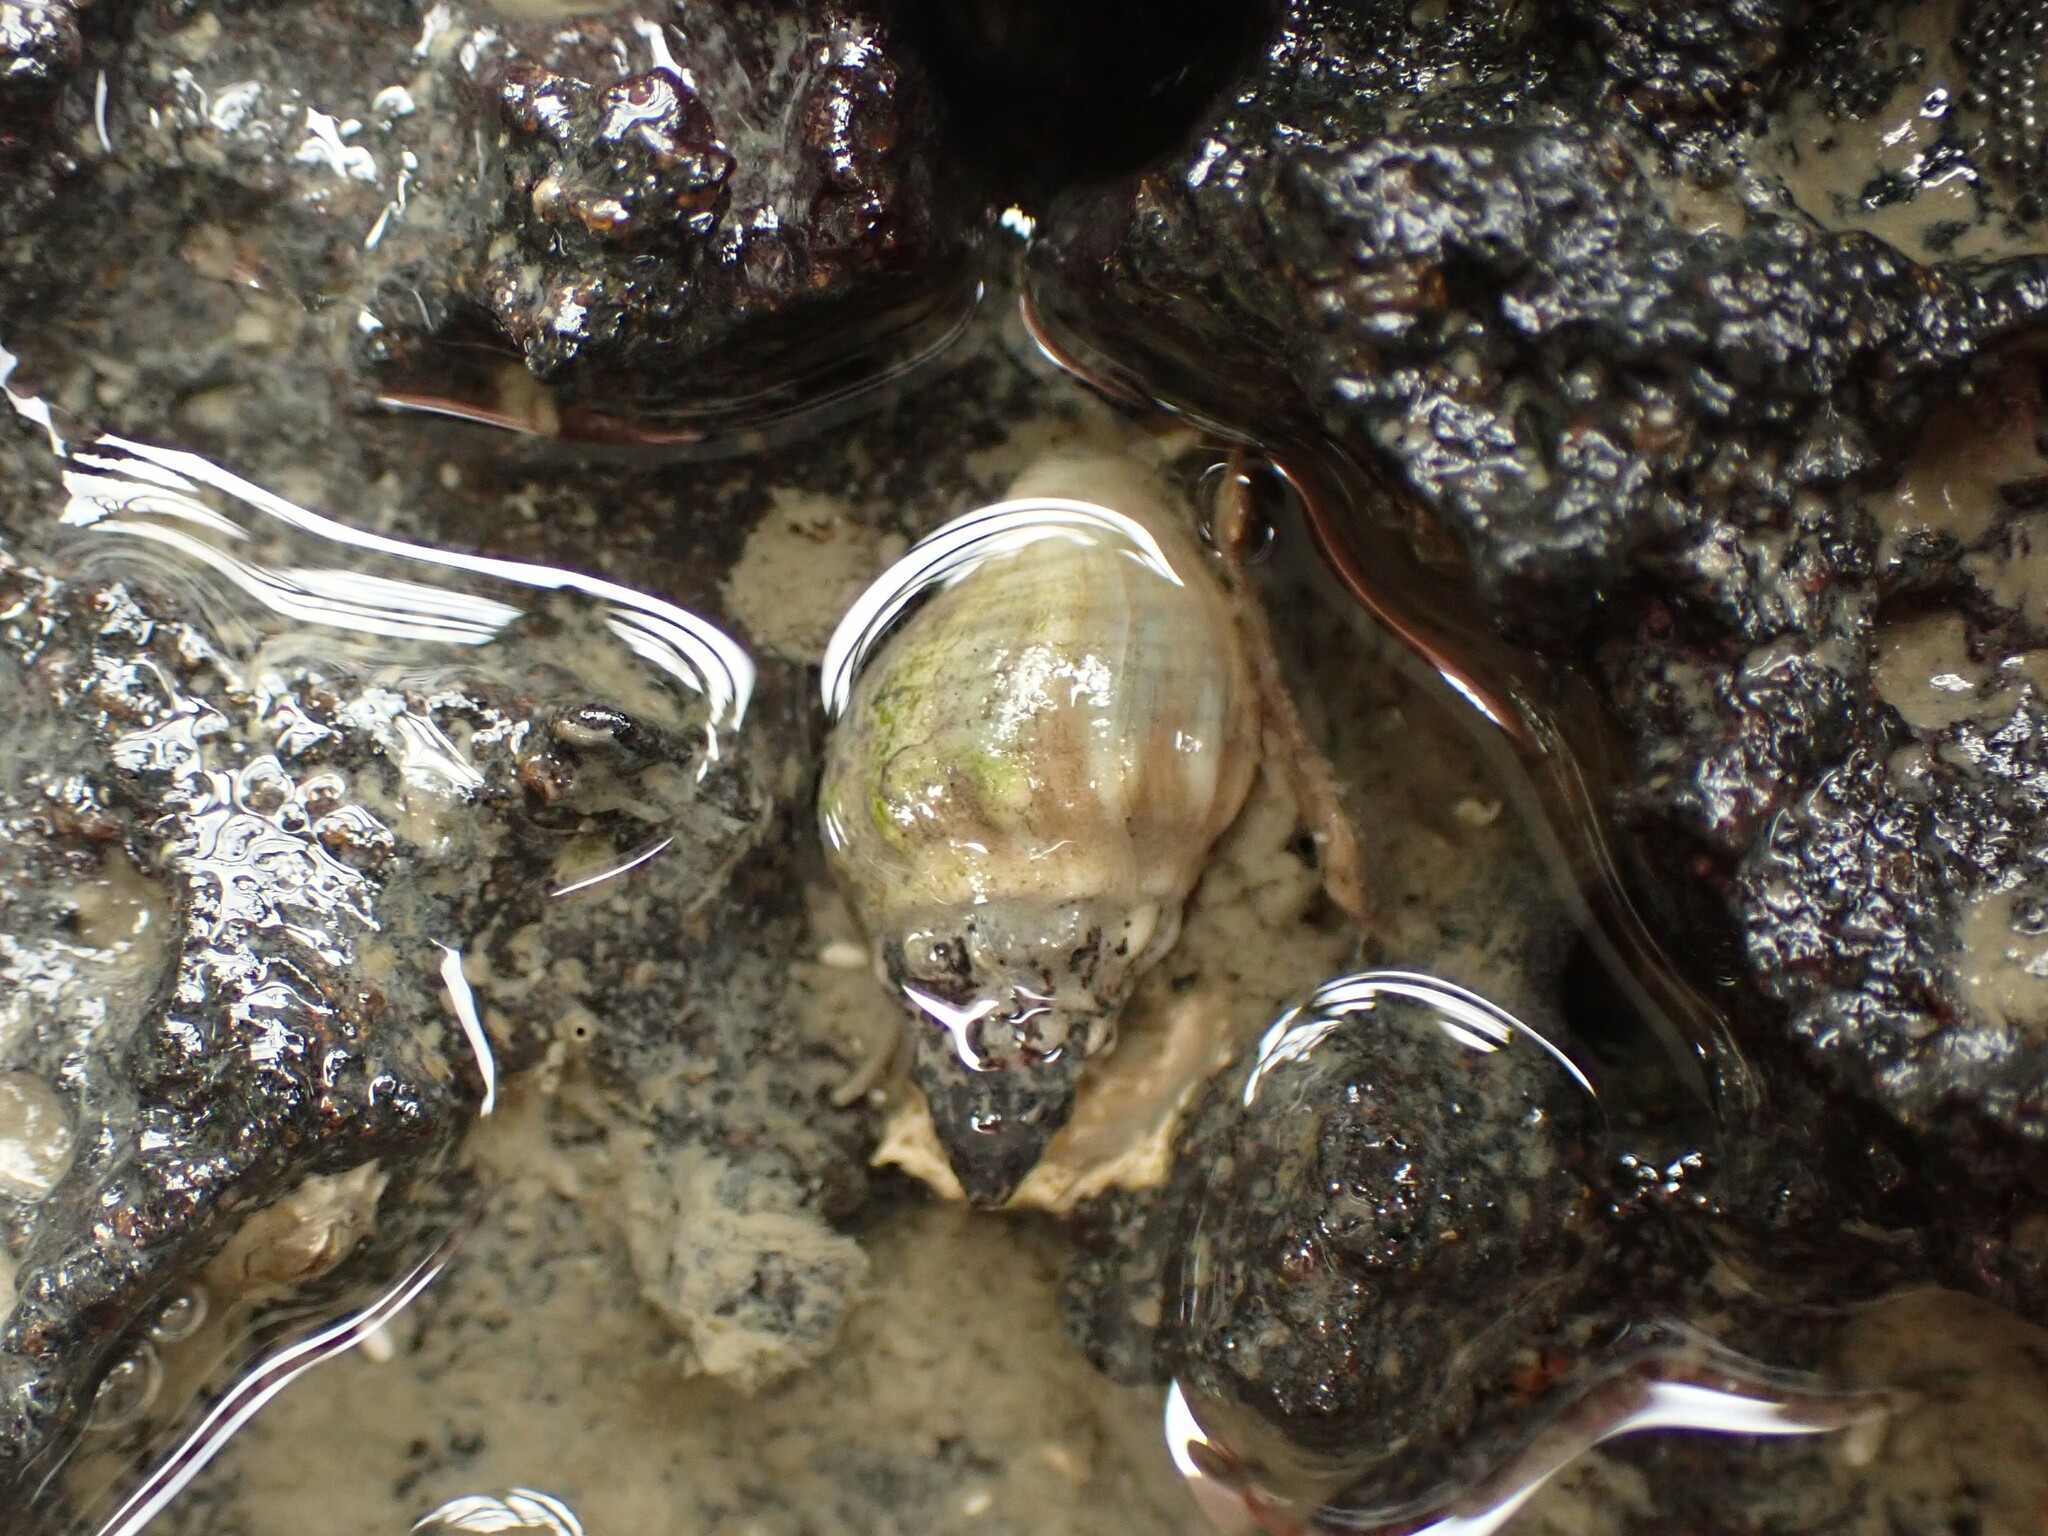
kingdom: Animalia
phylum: Mollusca
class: Gastropoda
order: Neogastropoda
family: Cominellidae
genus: Cominella
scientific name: Cominella glandiformis
